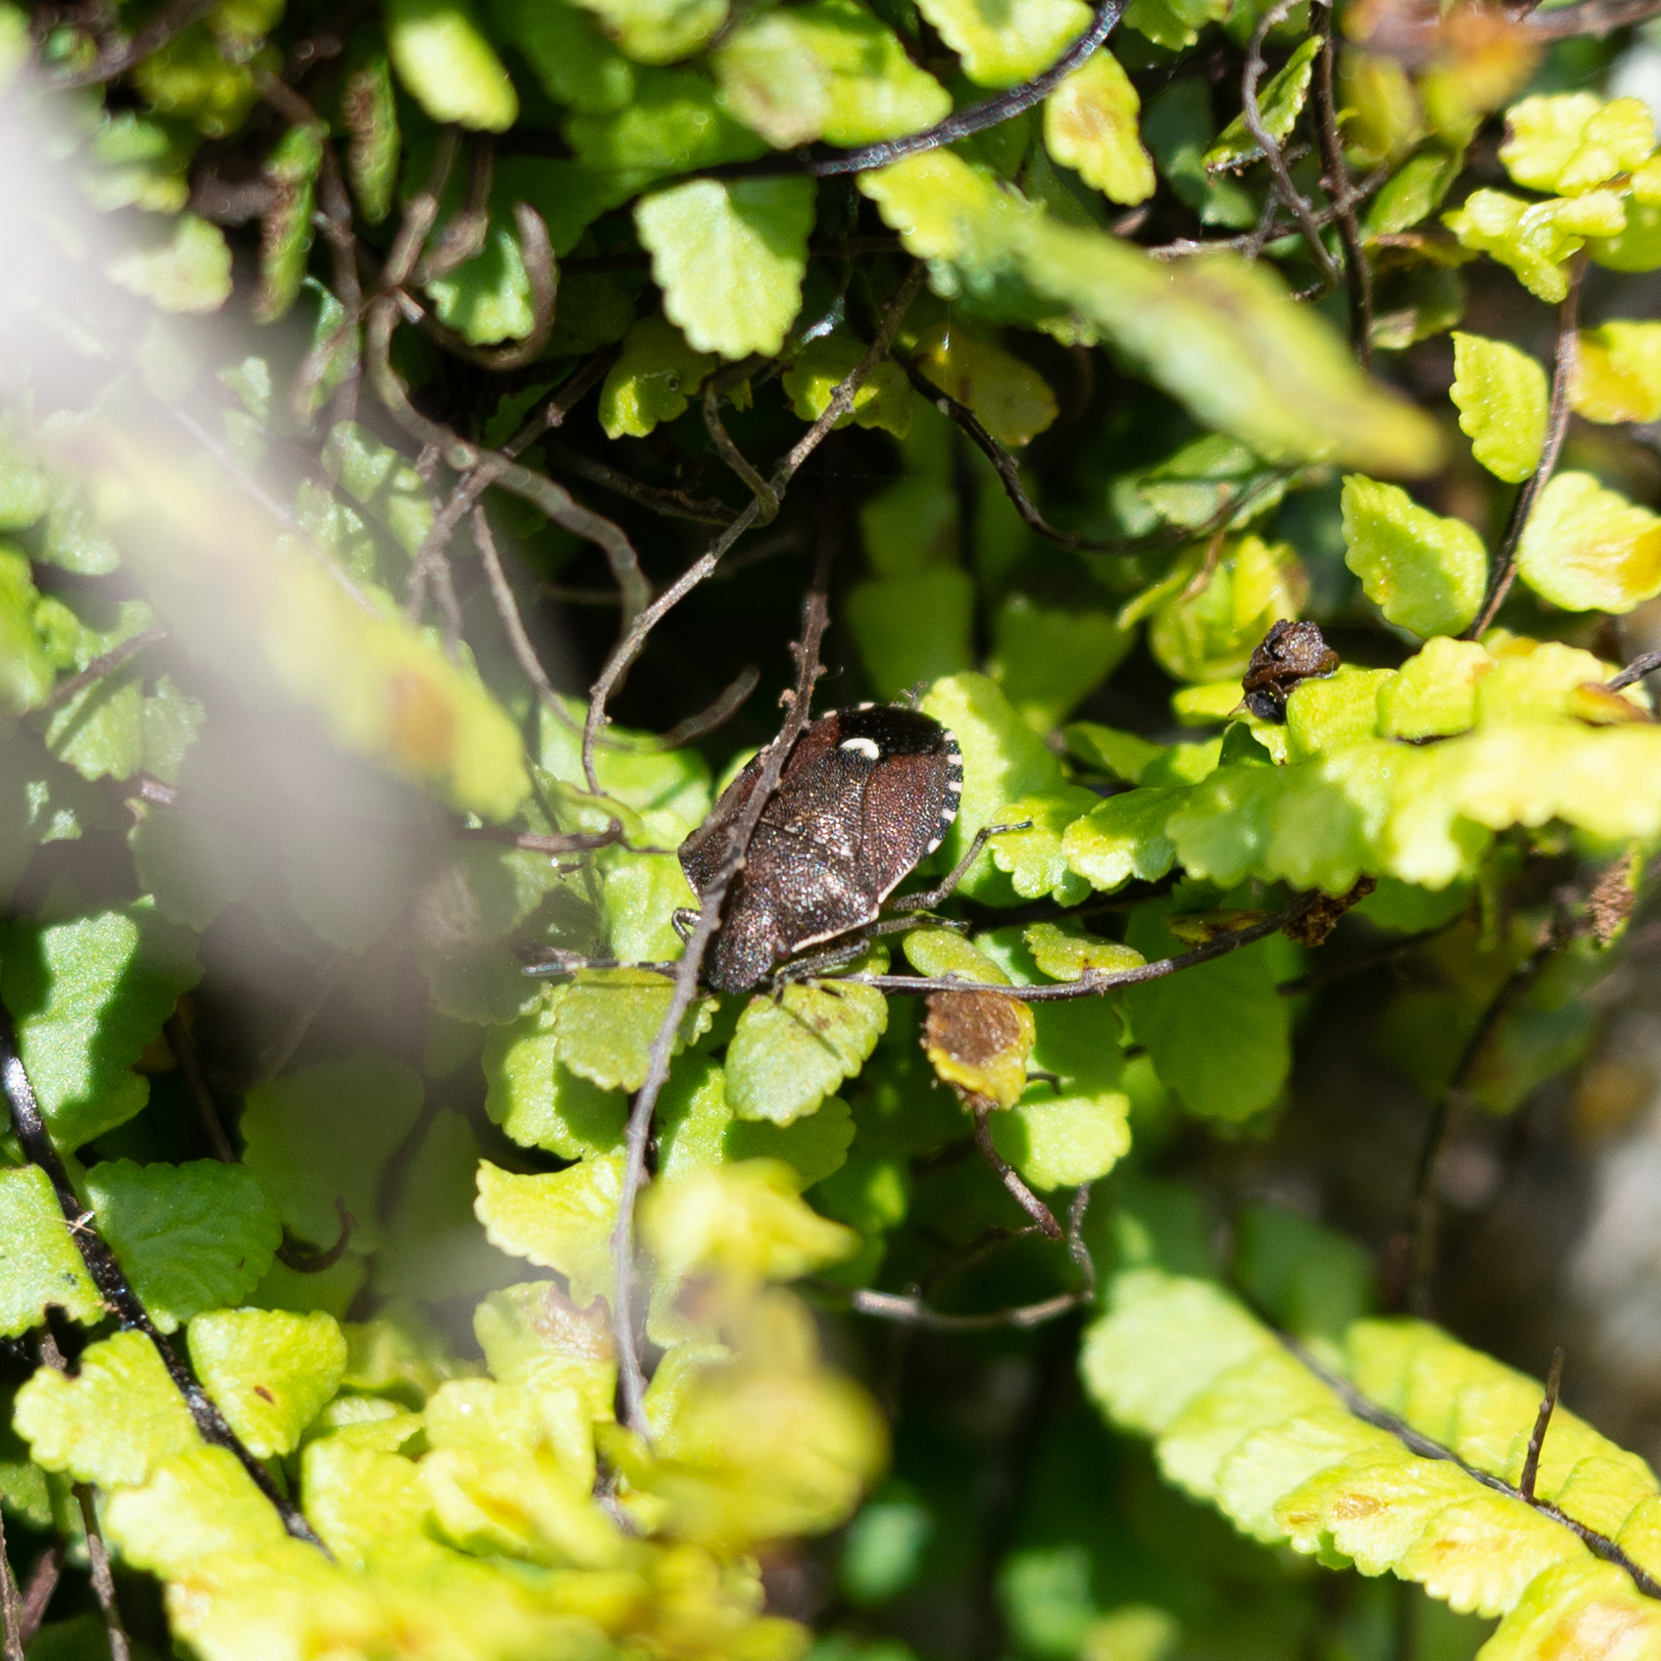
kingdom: Animalia
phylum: Arthropoda
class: Insecta
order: Hemiptera
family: Pentatomidae
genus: Holcostethus
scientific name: Holcostethus sphacelatus
